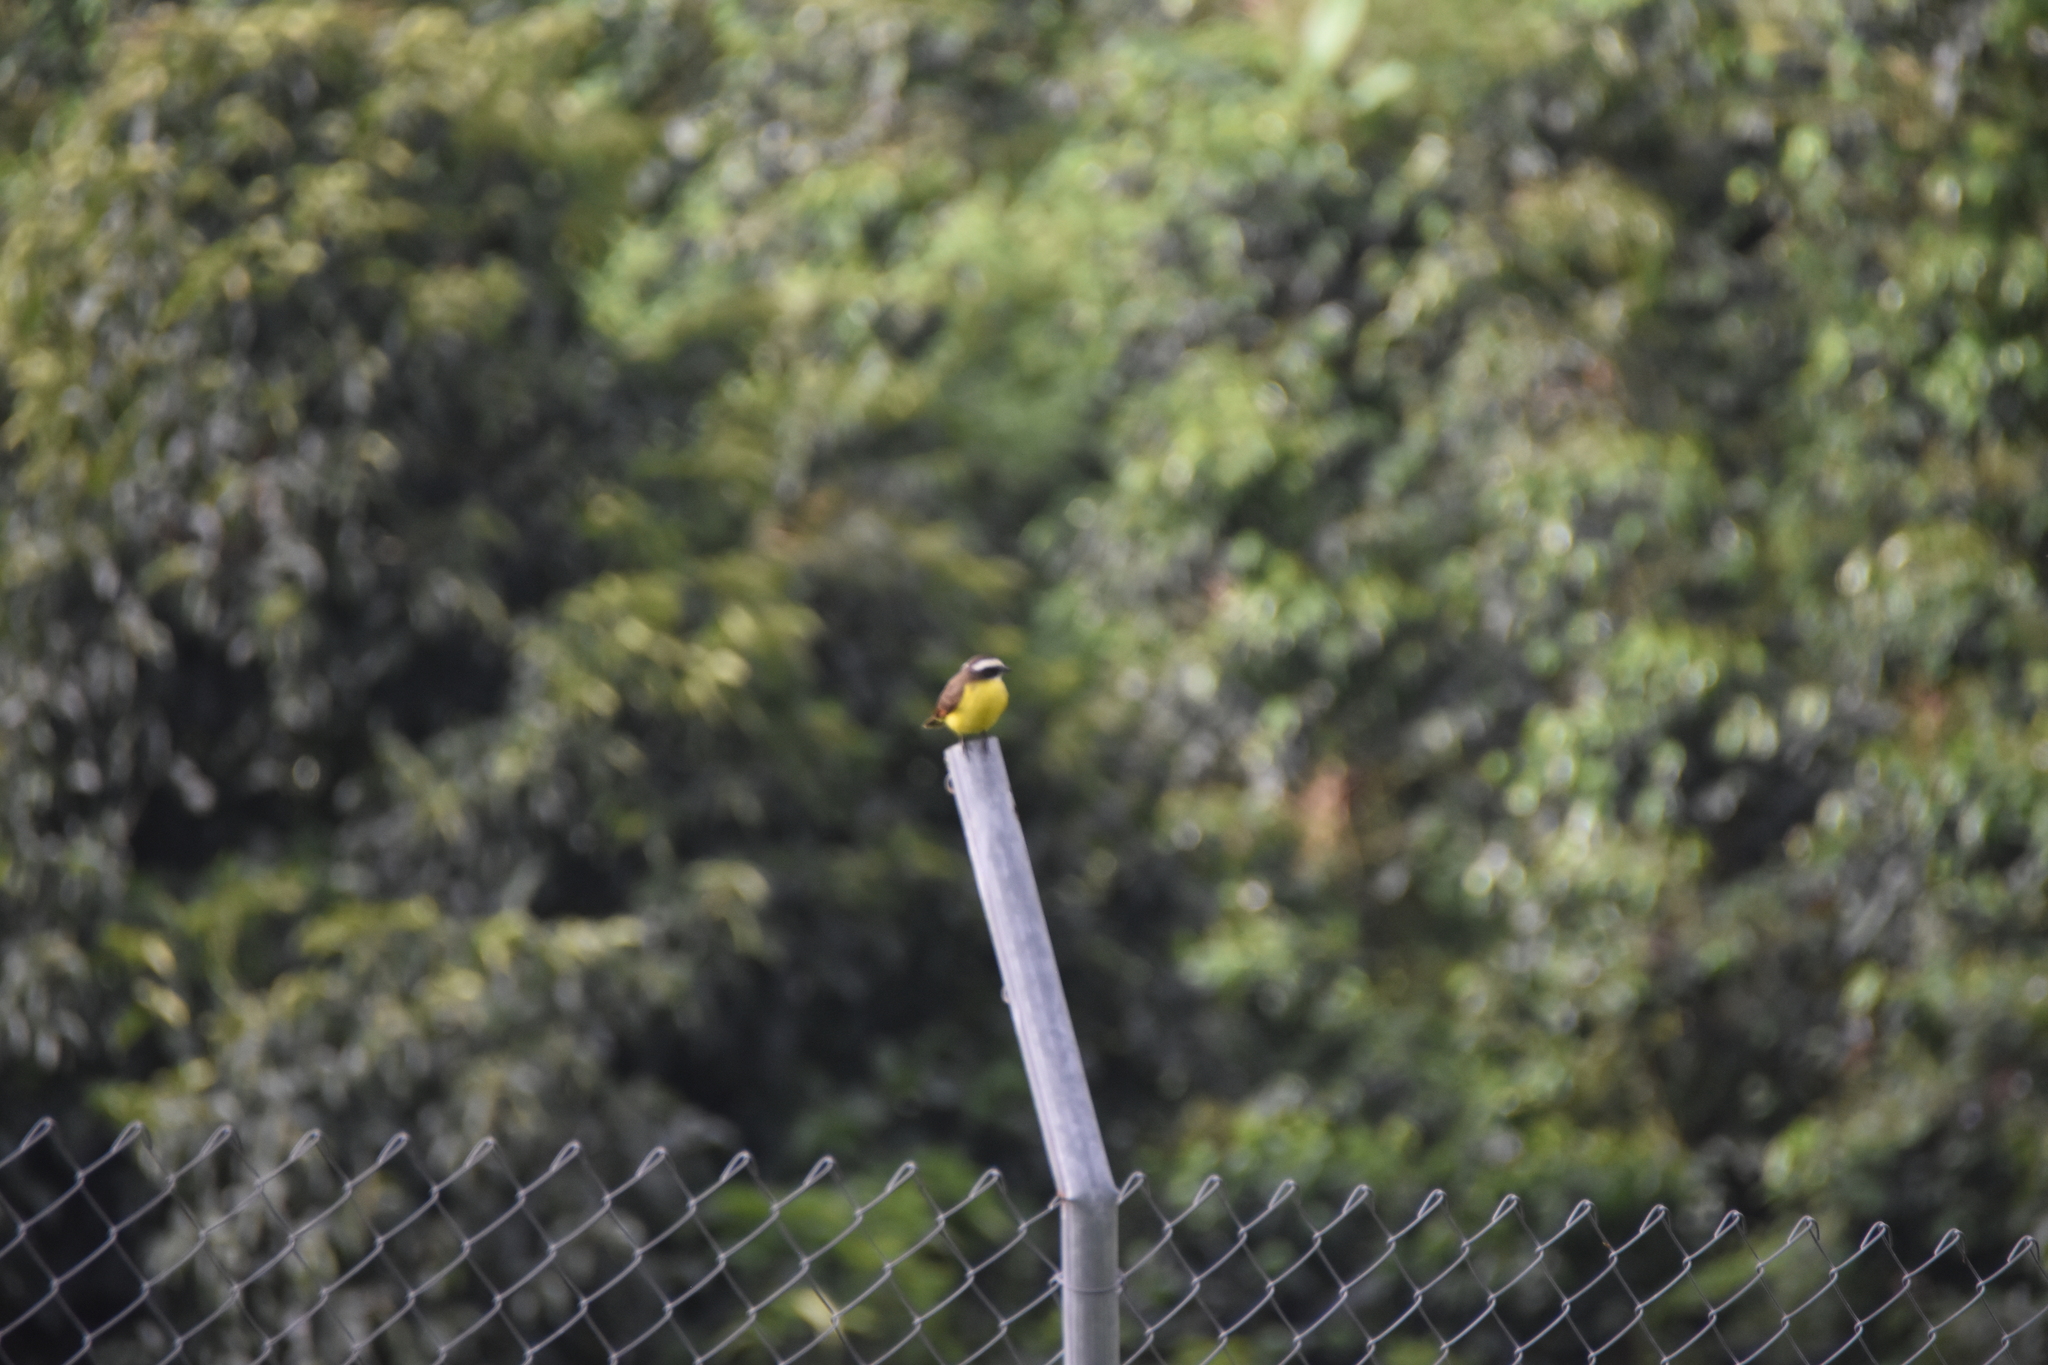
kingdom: Animalia
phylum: Chordata
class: Aves
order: Passeriformes
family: Tyrannidae
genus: Myiozetetes
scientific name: Myiozetetes cayanensis
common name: Rusty-margined flycatcher
